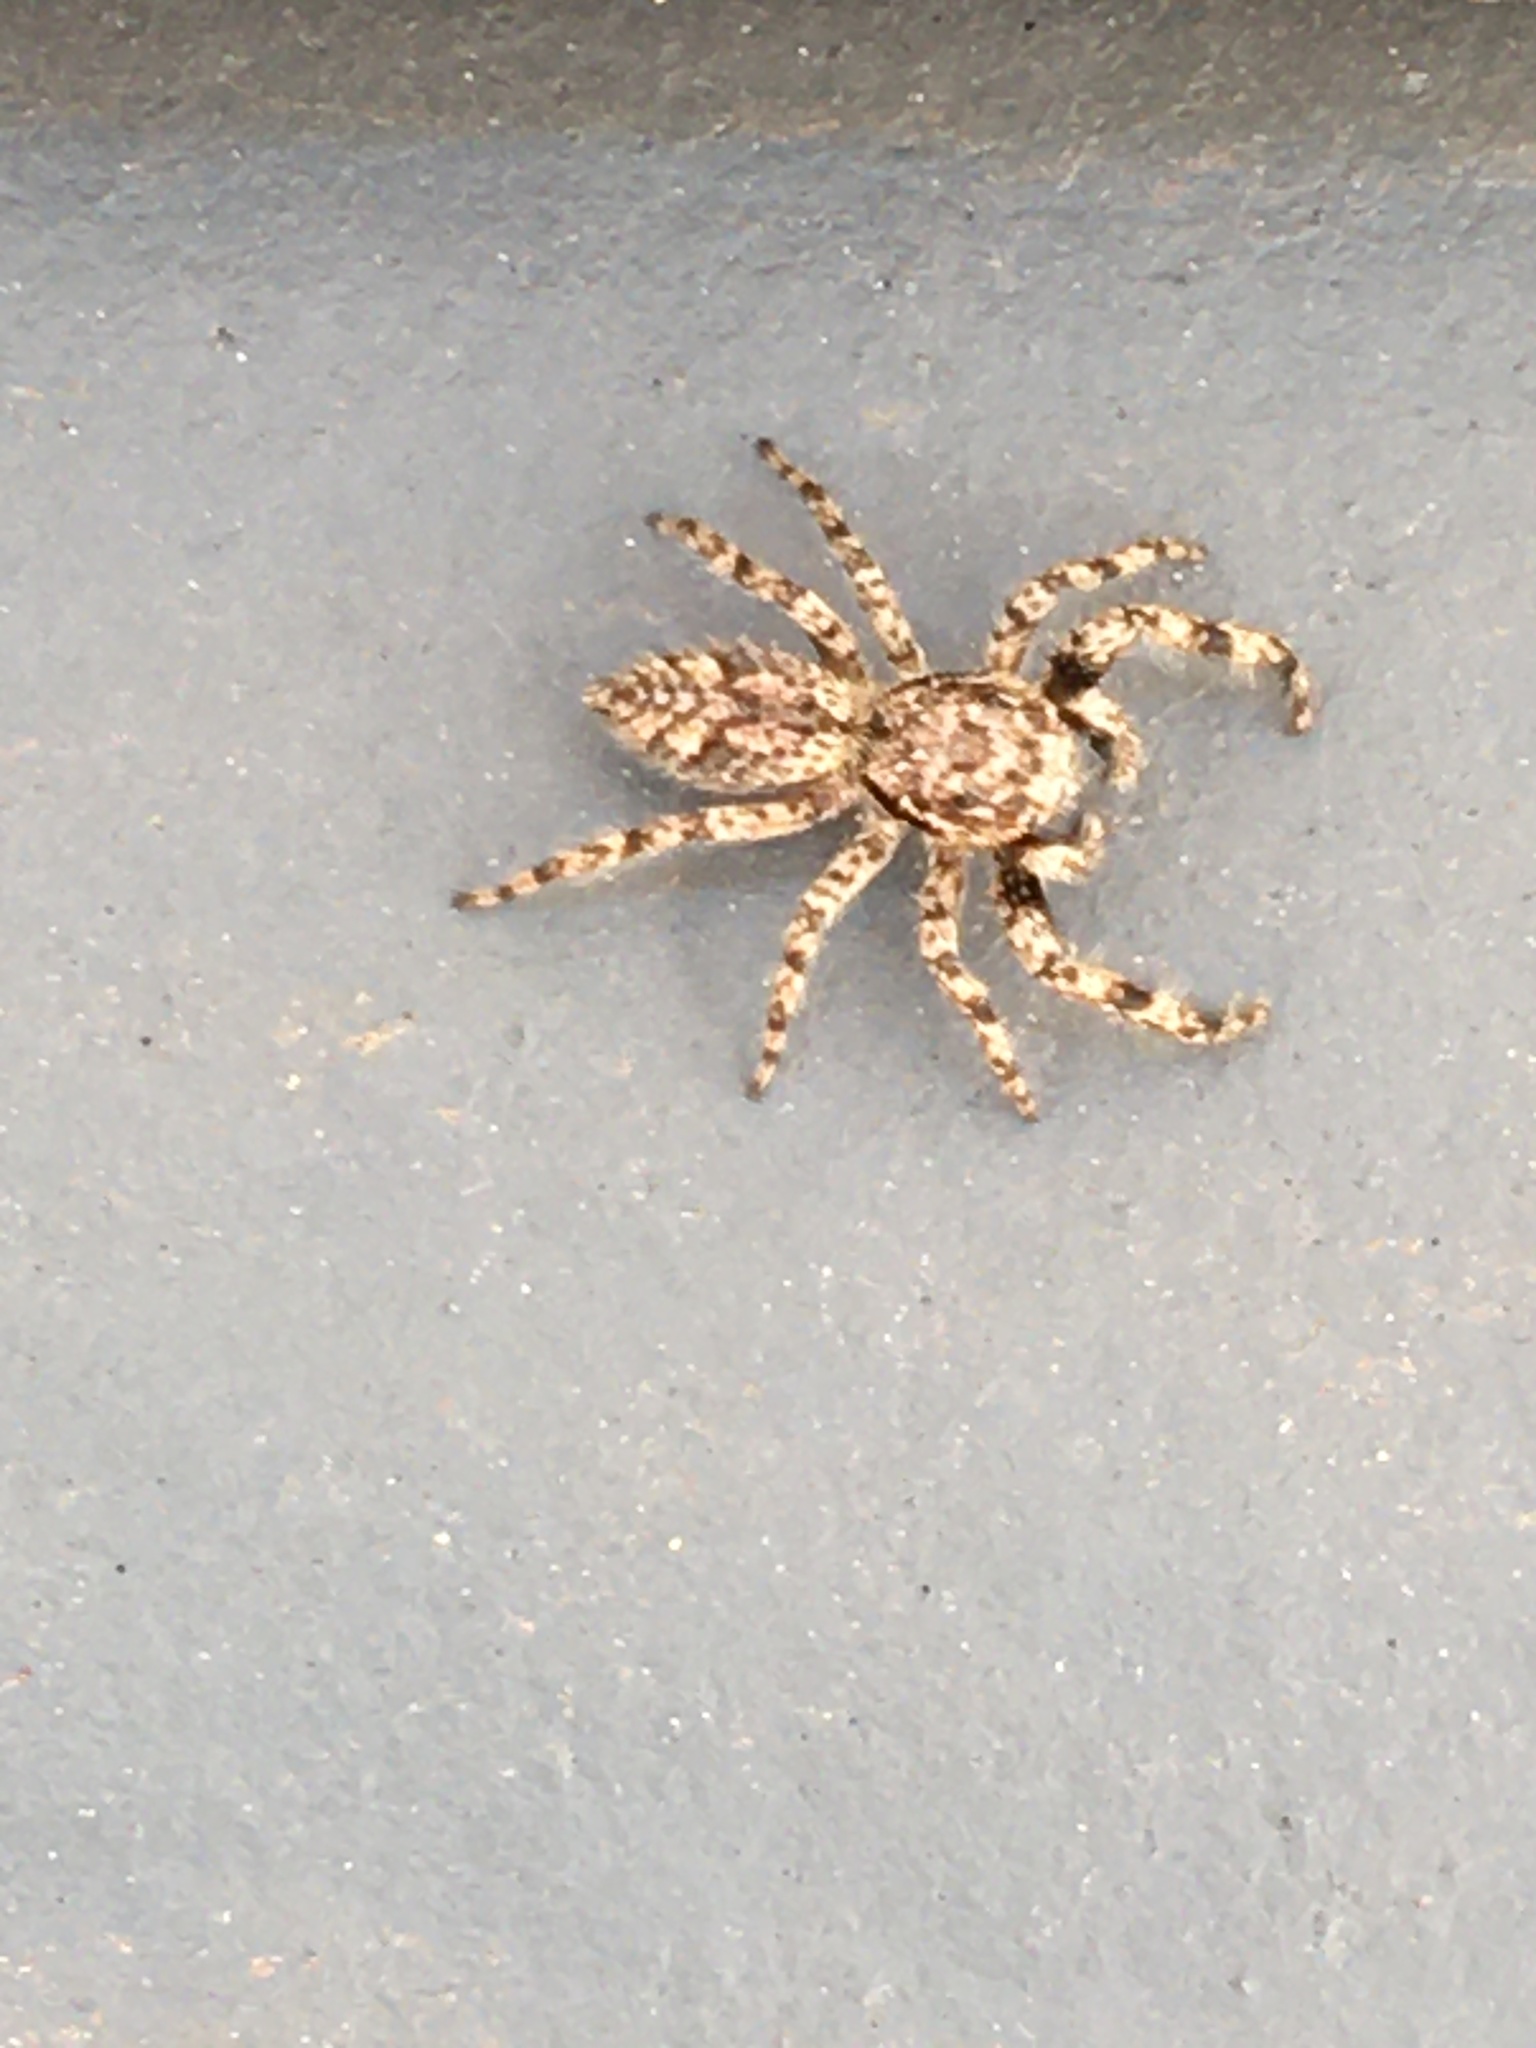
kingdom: Animalia
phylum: Arthropoda
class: Arachnida
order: Araneae
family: Salticidae
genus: Platycryptus
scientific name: Platycryptus undatus
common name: Tan jumping spider
